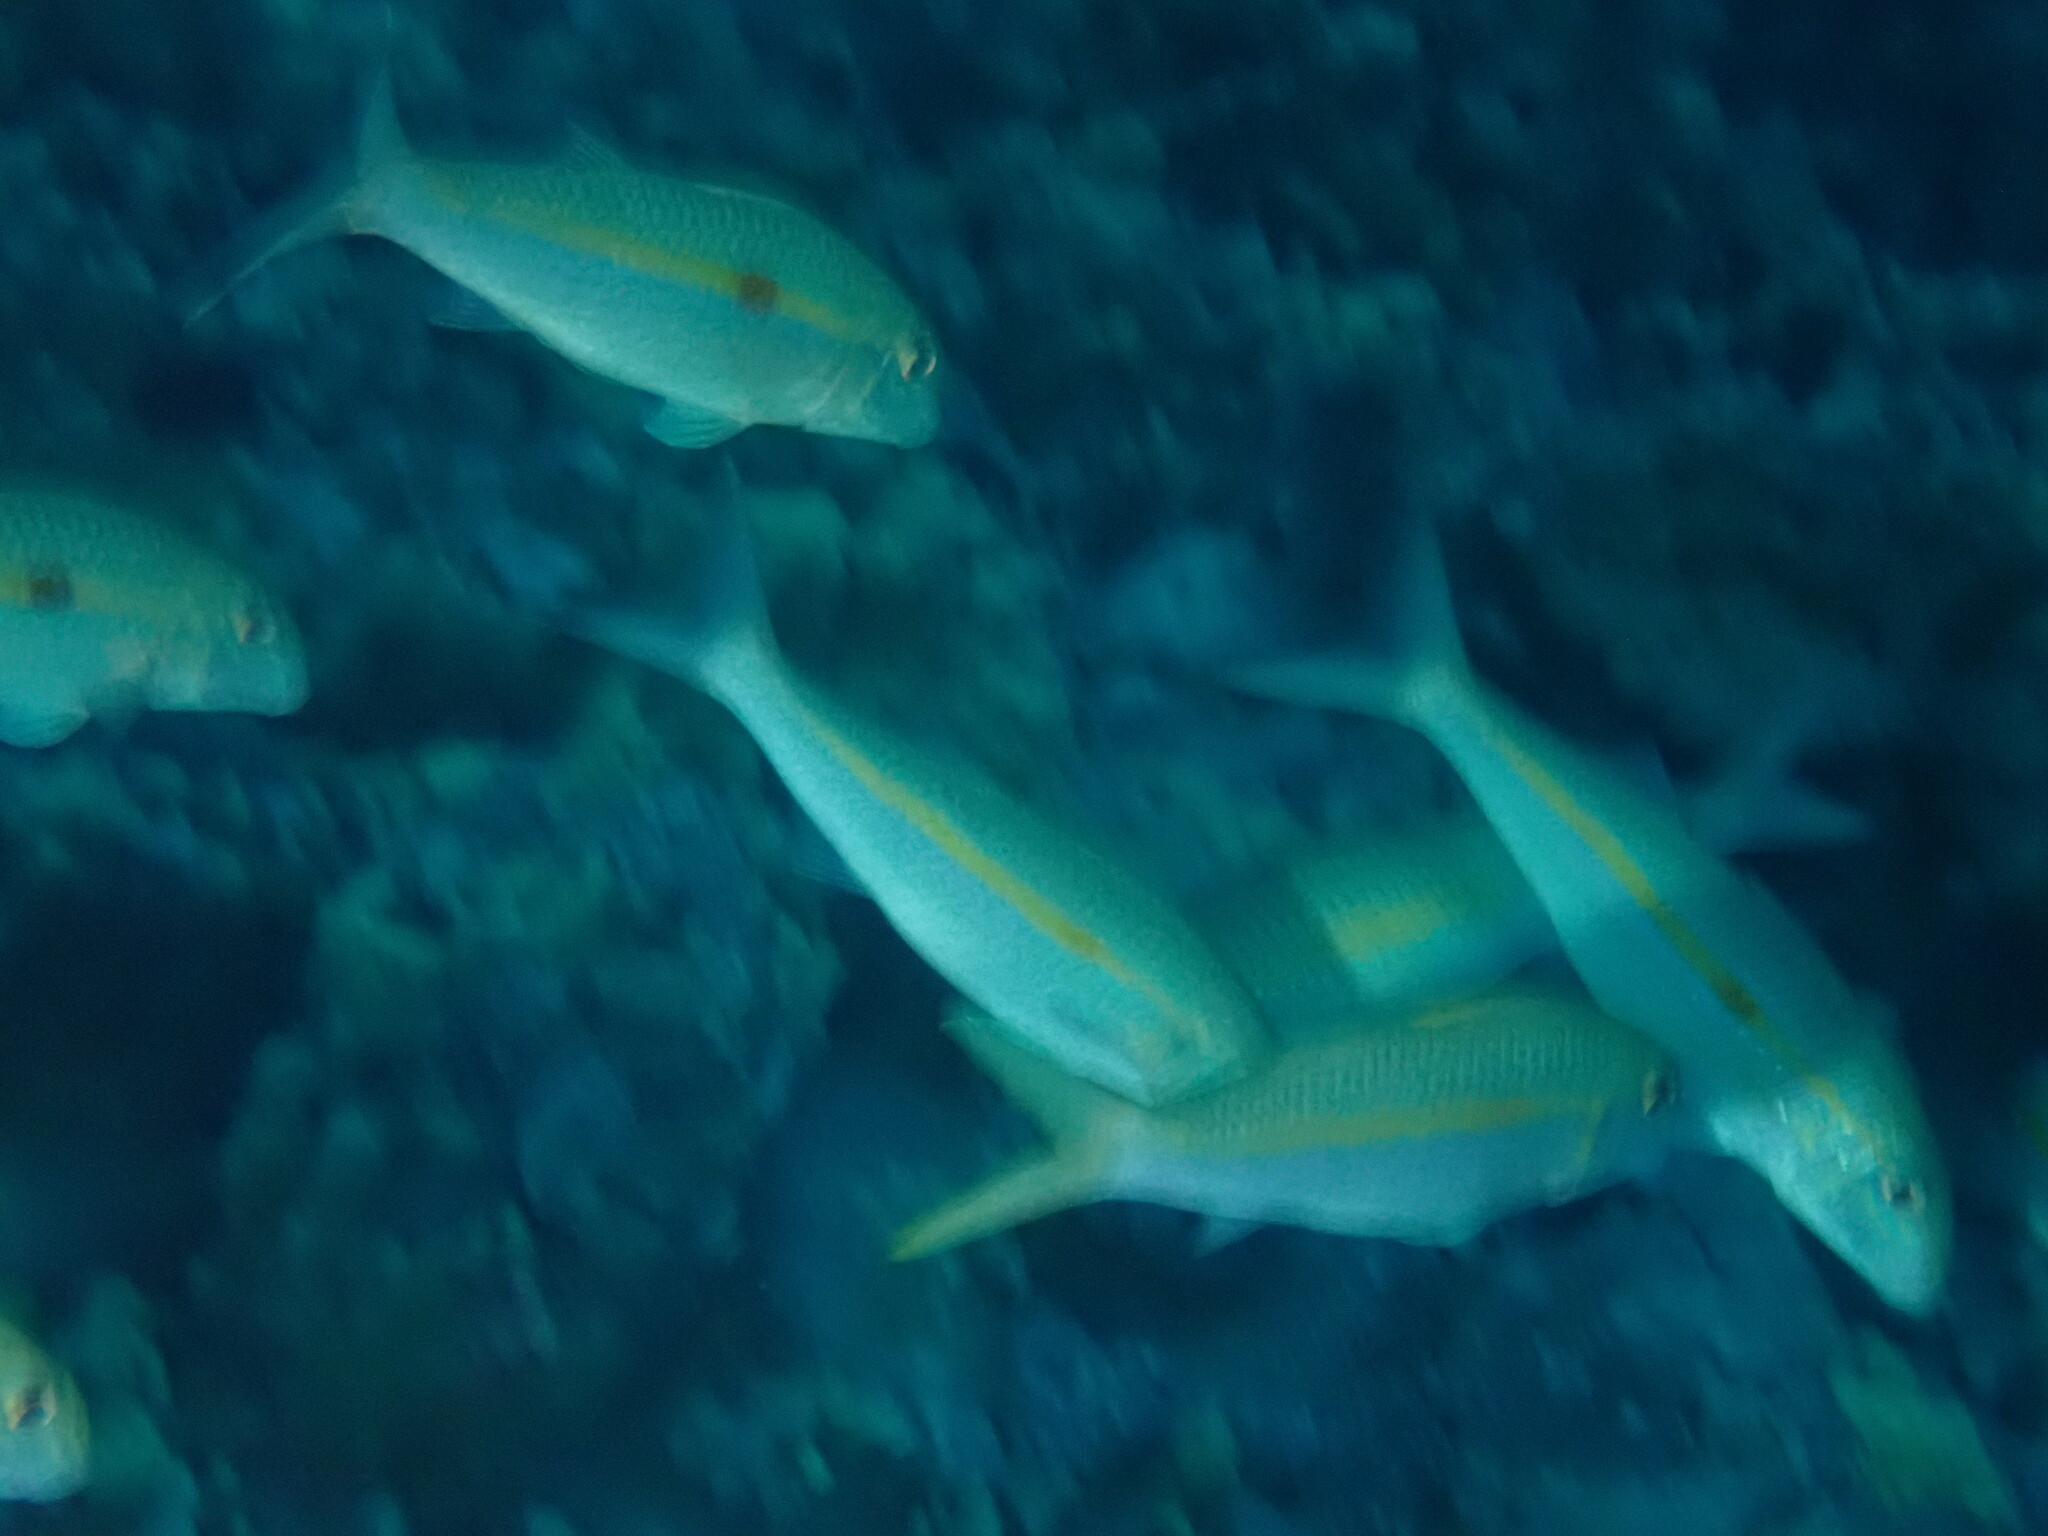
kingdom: Animalia
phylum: Chordata
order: Perciformes
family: Mullidae
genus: Mulloidichthys
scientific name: Mulloidichthys flavolineatus
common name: Yellowstripe goatfish
